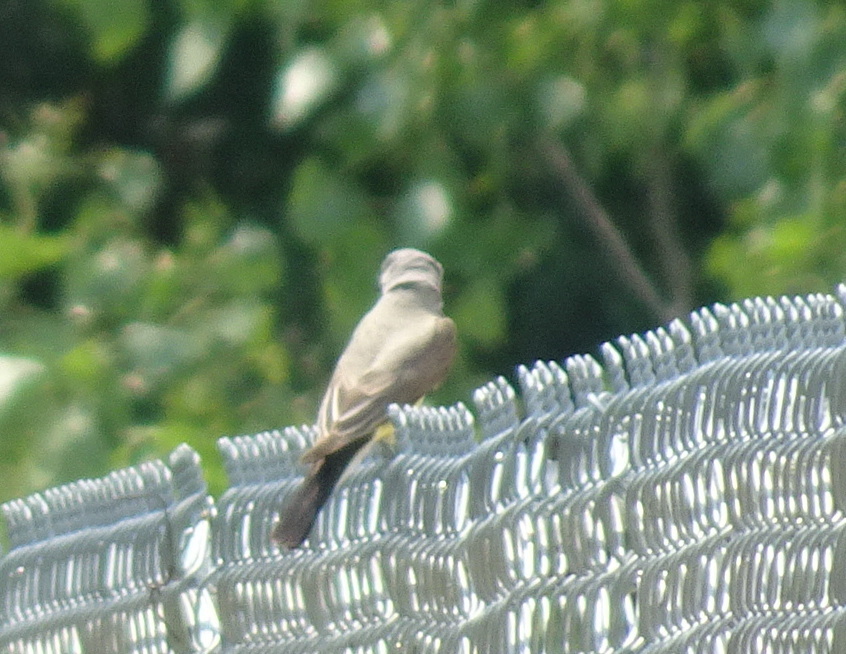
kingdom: Animalia
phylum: Chordata
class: Aves
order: Passeriformes
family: Tyrannidae
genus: Tyrannus
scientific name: Tyrannus verticalis
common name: Western kingbird
